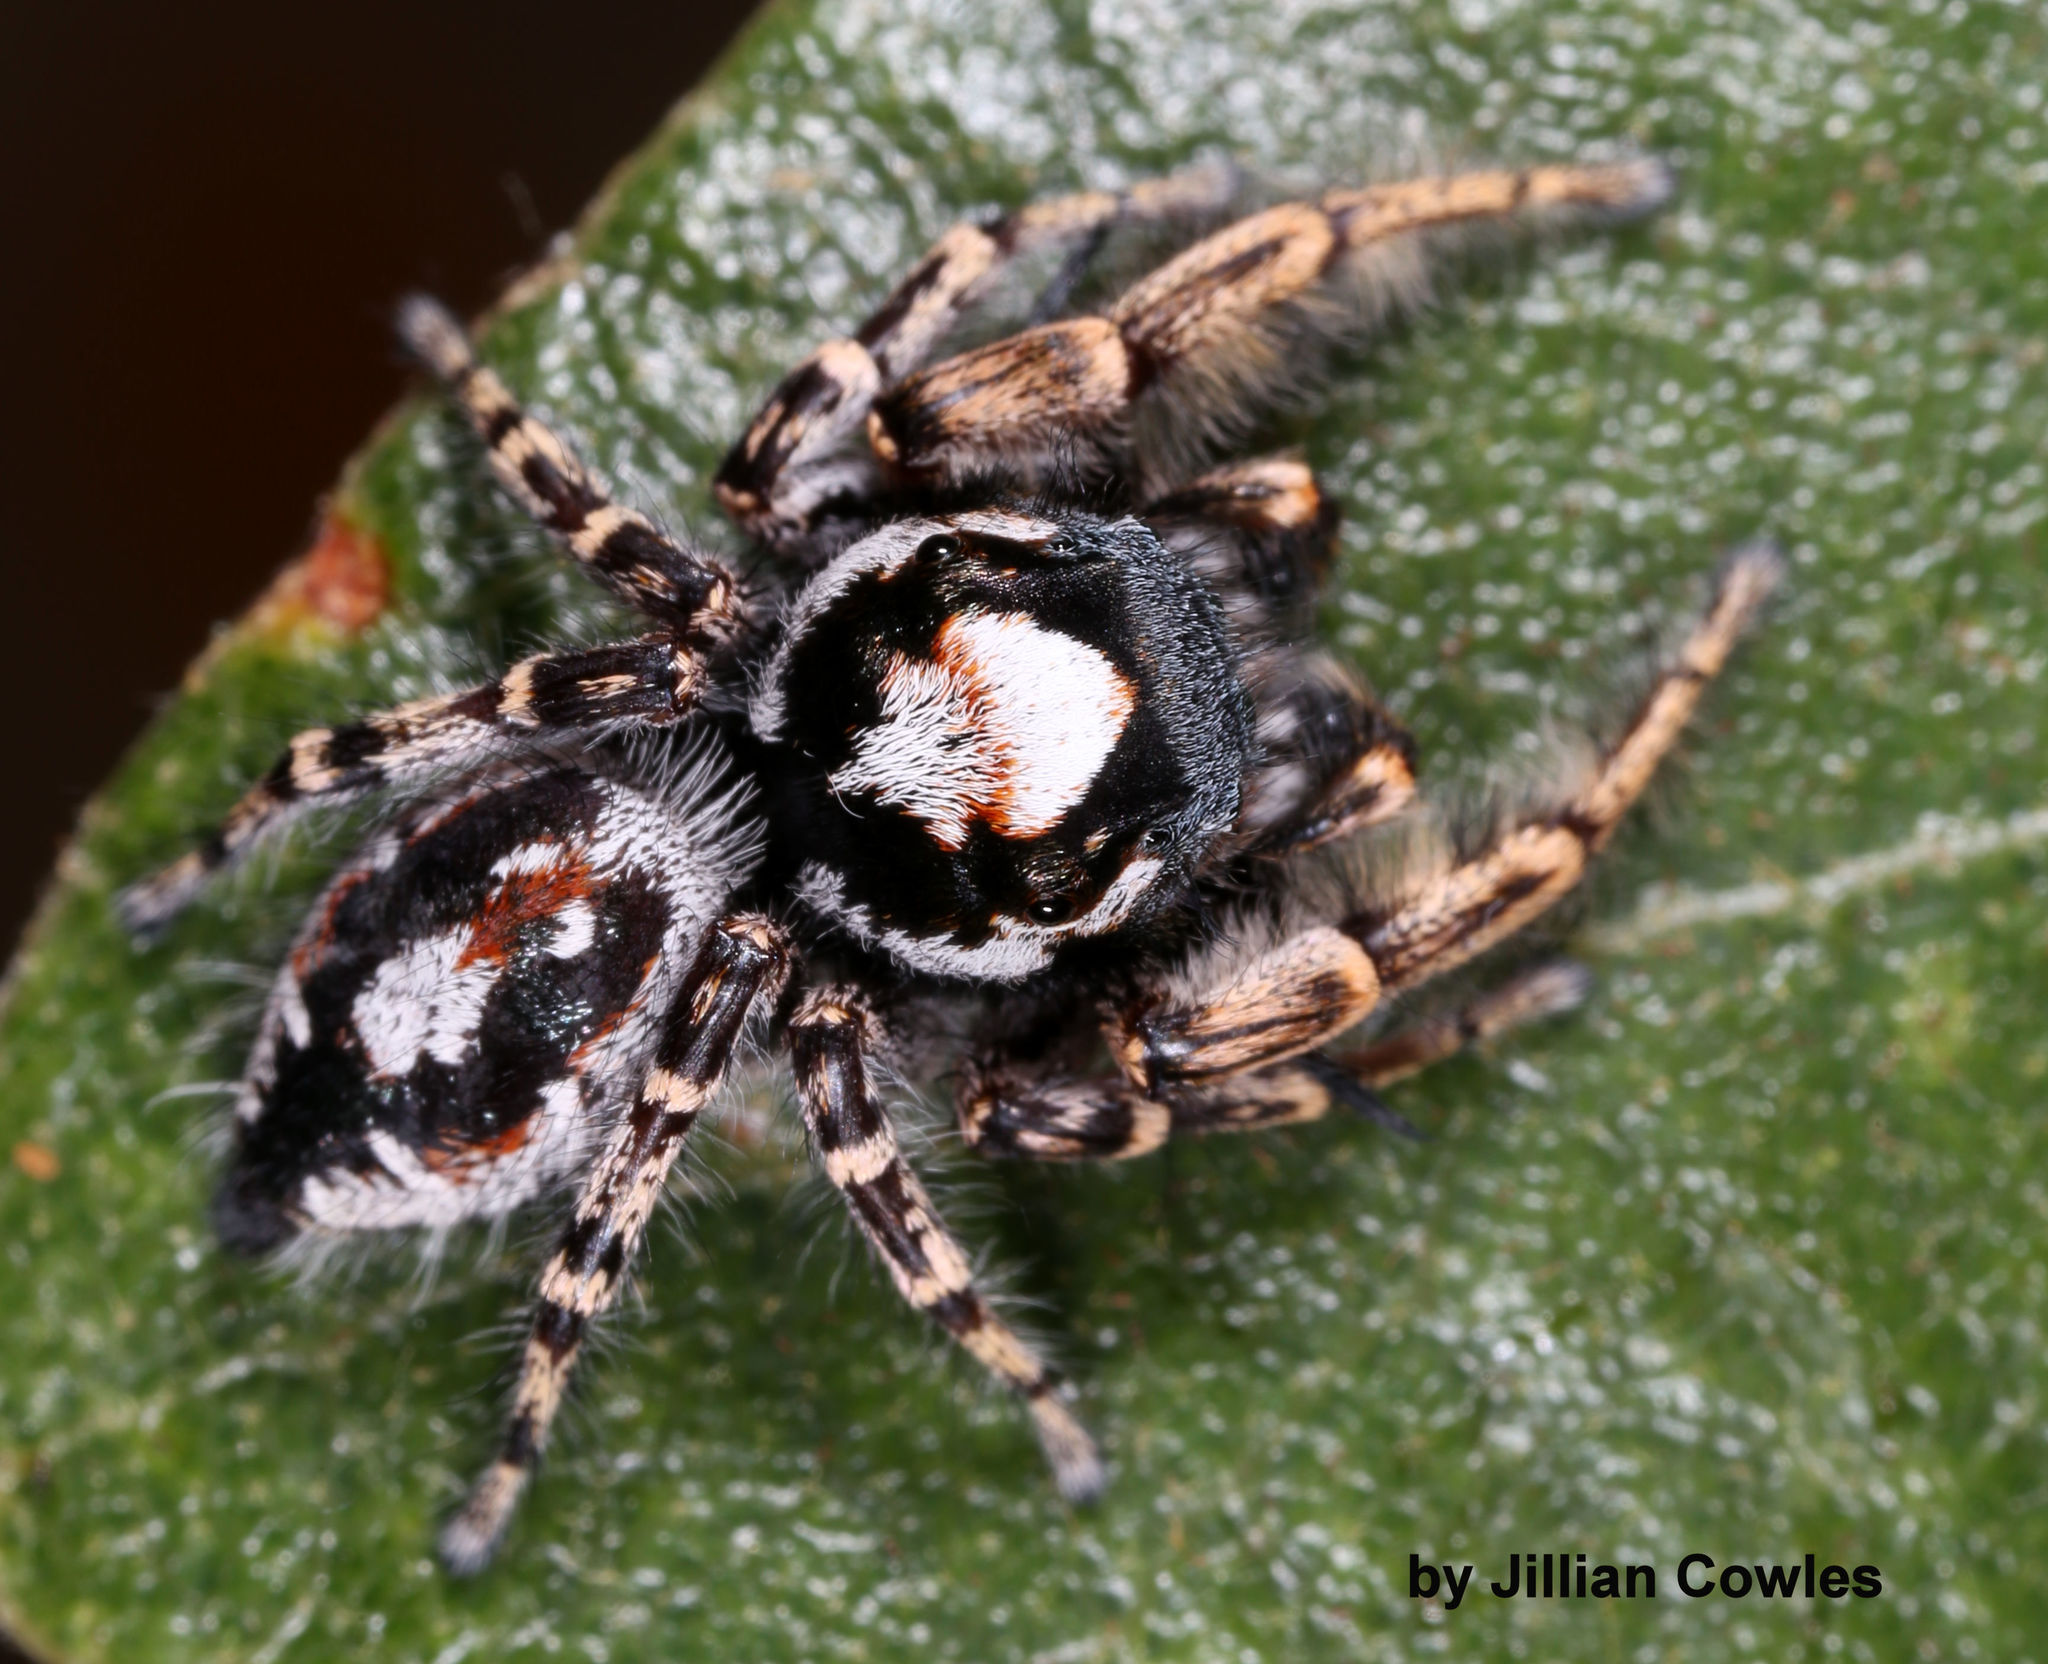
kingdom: Animalia
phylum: Arthropoda
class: Arachnida
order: Araneae
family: Salticidae
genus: Phidippus
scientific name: Phidippus comatus
